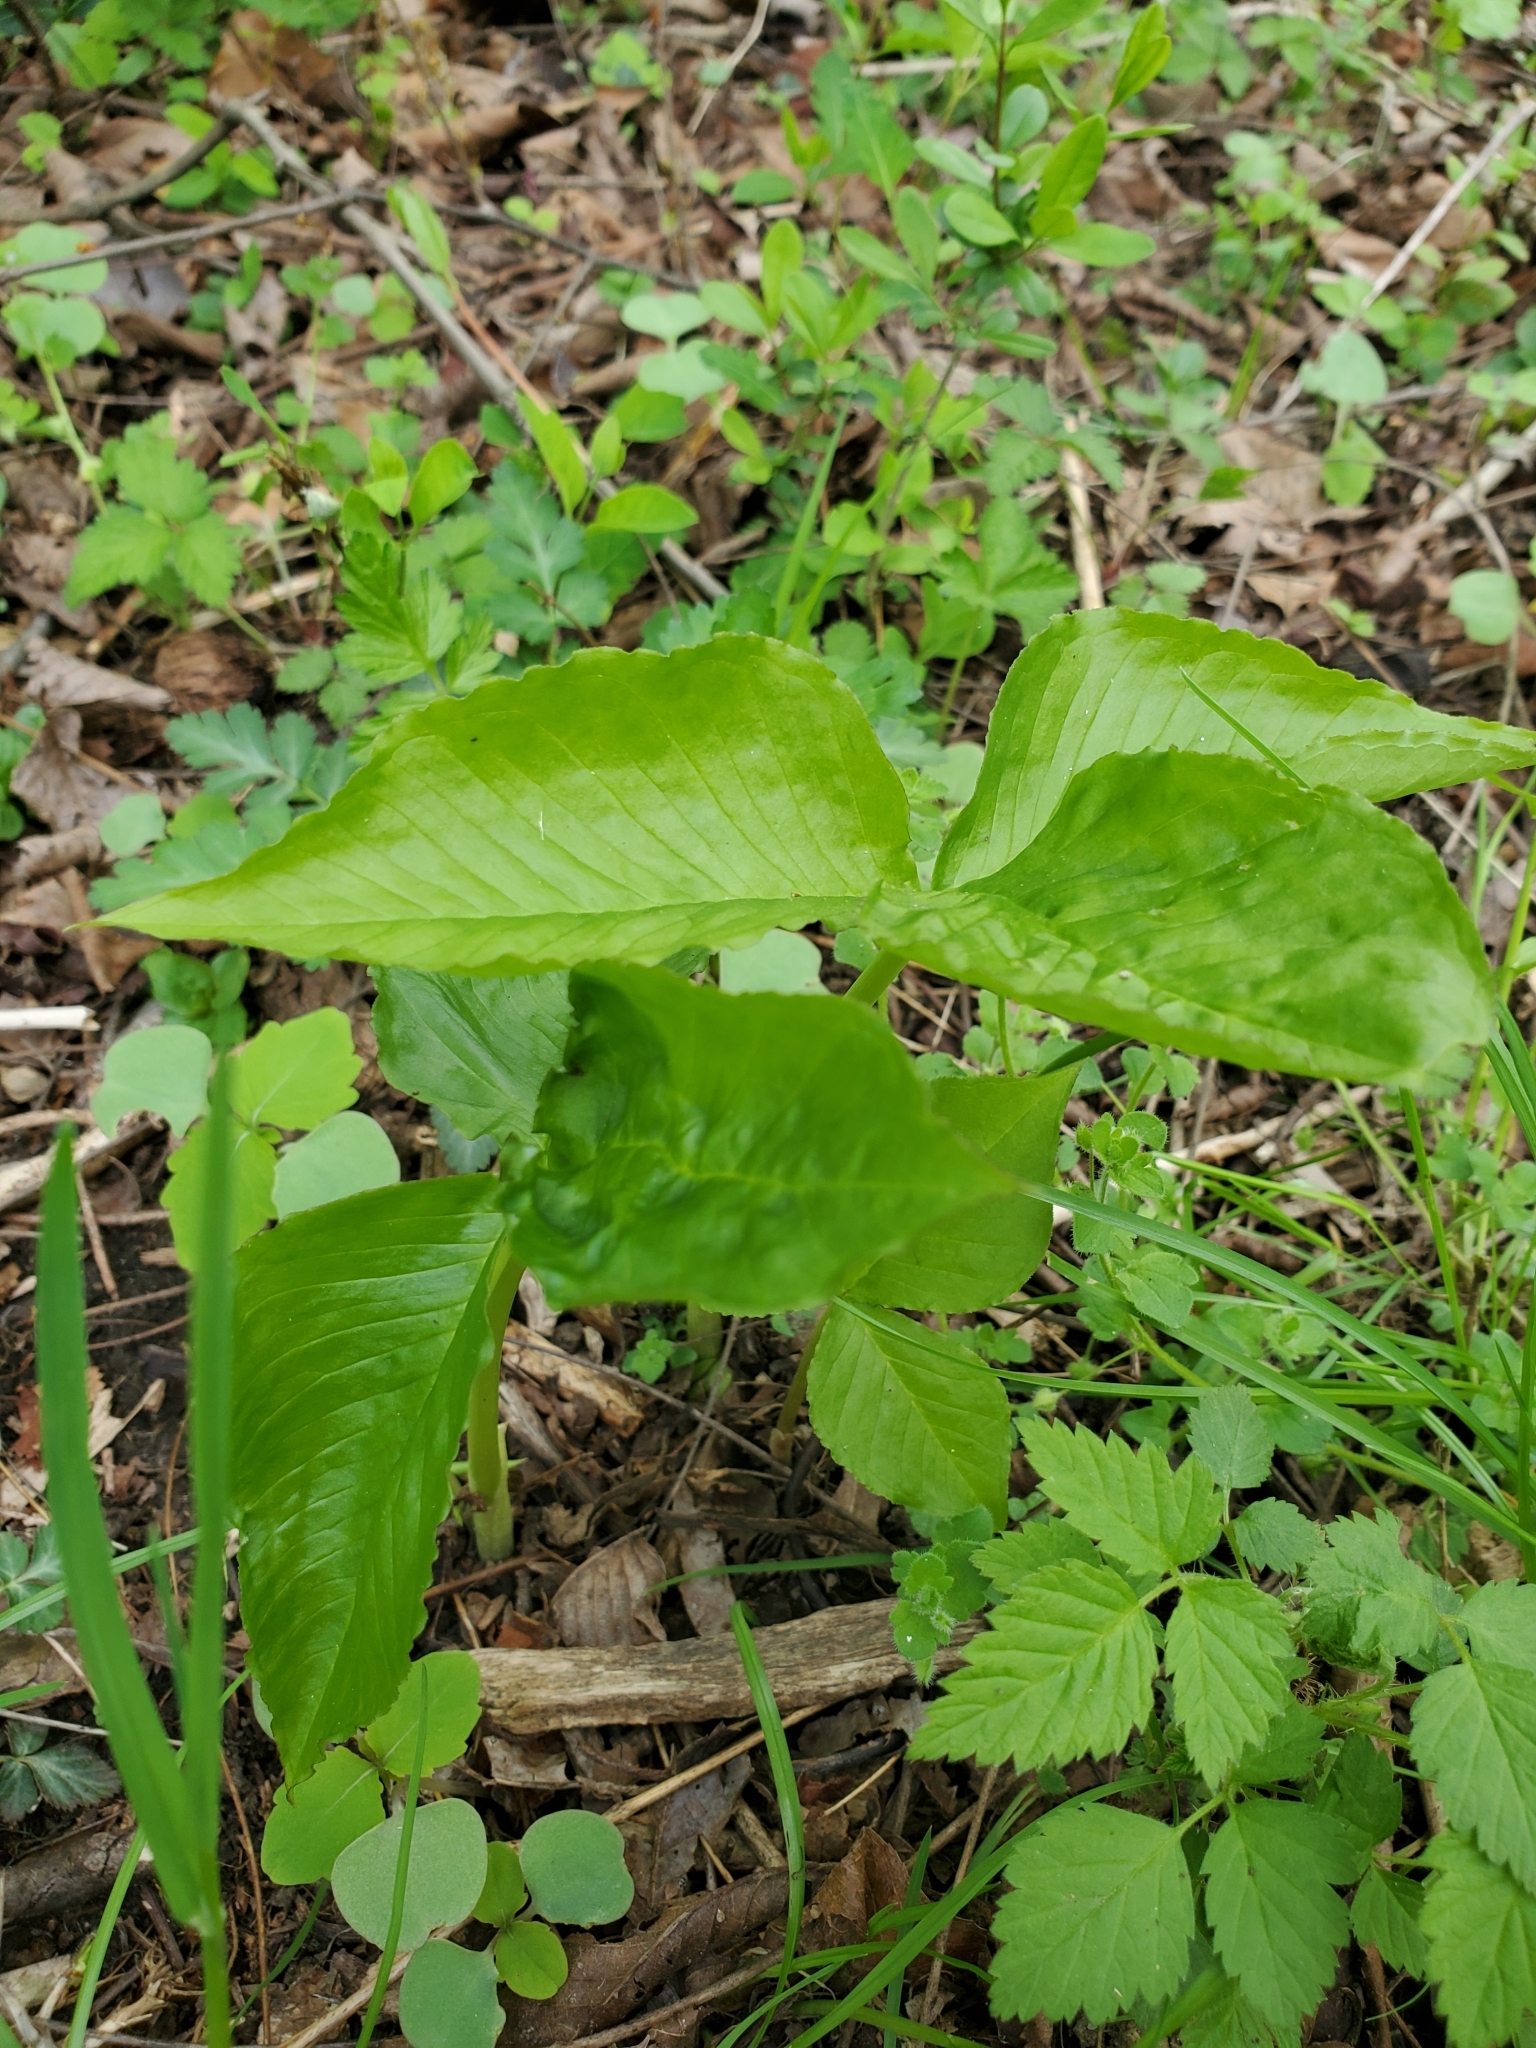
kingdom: Plantae
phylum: Tracheophyta
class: Liliopsida
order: Alismatales
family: Araceae
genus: Arisaema
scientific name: Arisaema triphyllum
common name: Jack-in-the-pulpit
